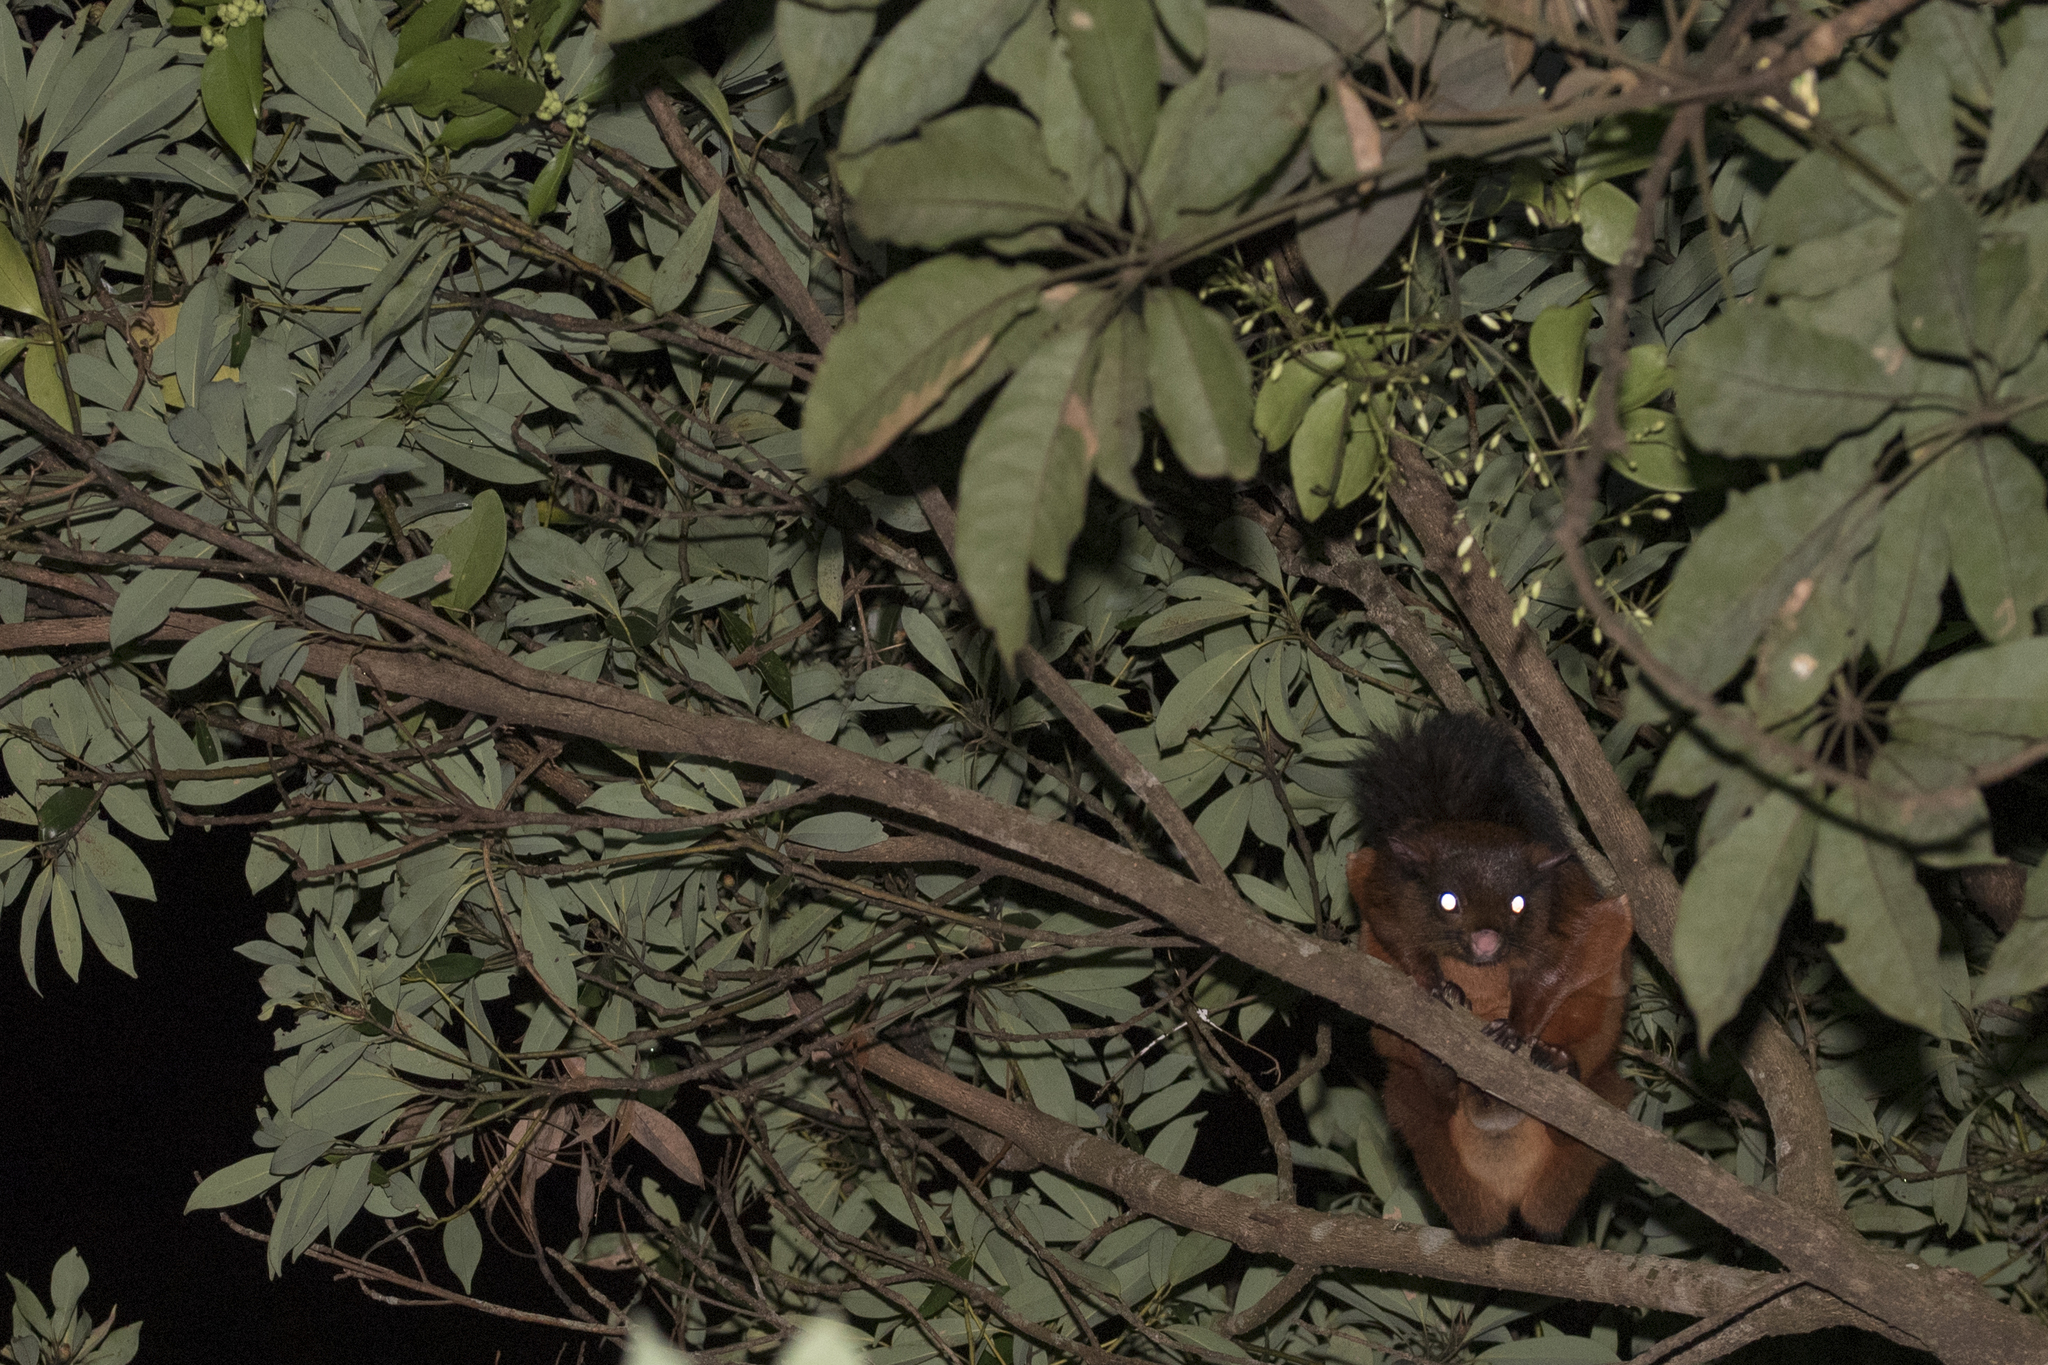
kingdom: Animalia
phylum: Chordata
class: Mammalia
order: Rodentia
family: Sciuridae
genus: Petaurista
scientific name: Petaurista
